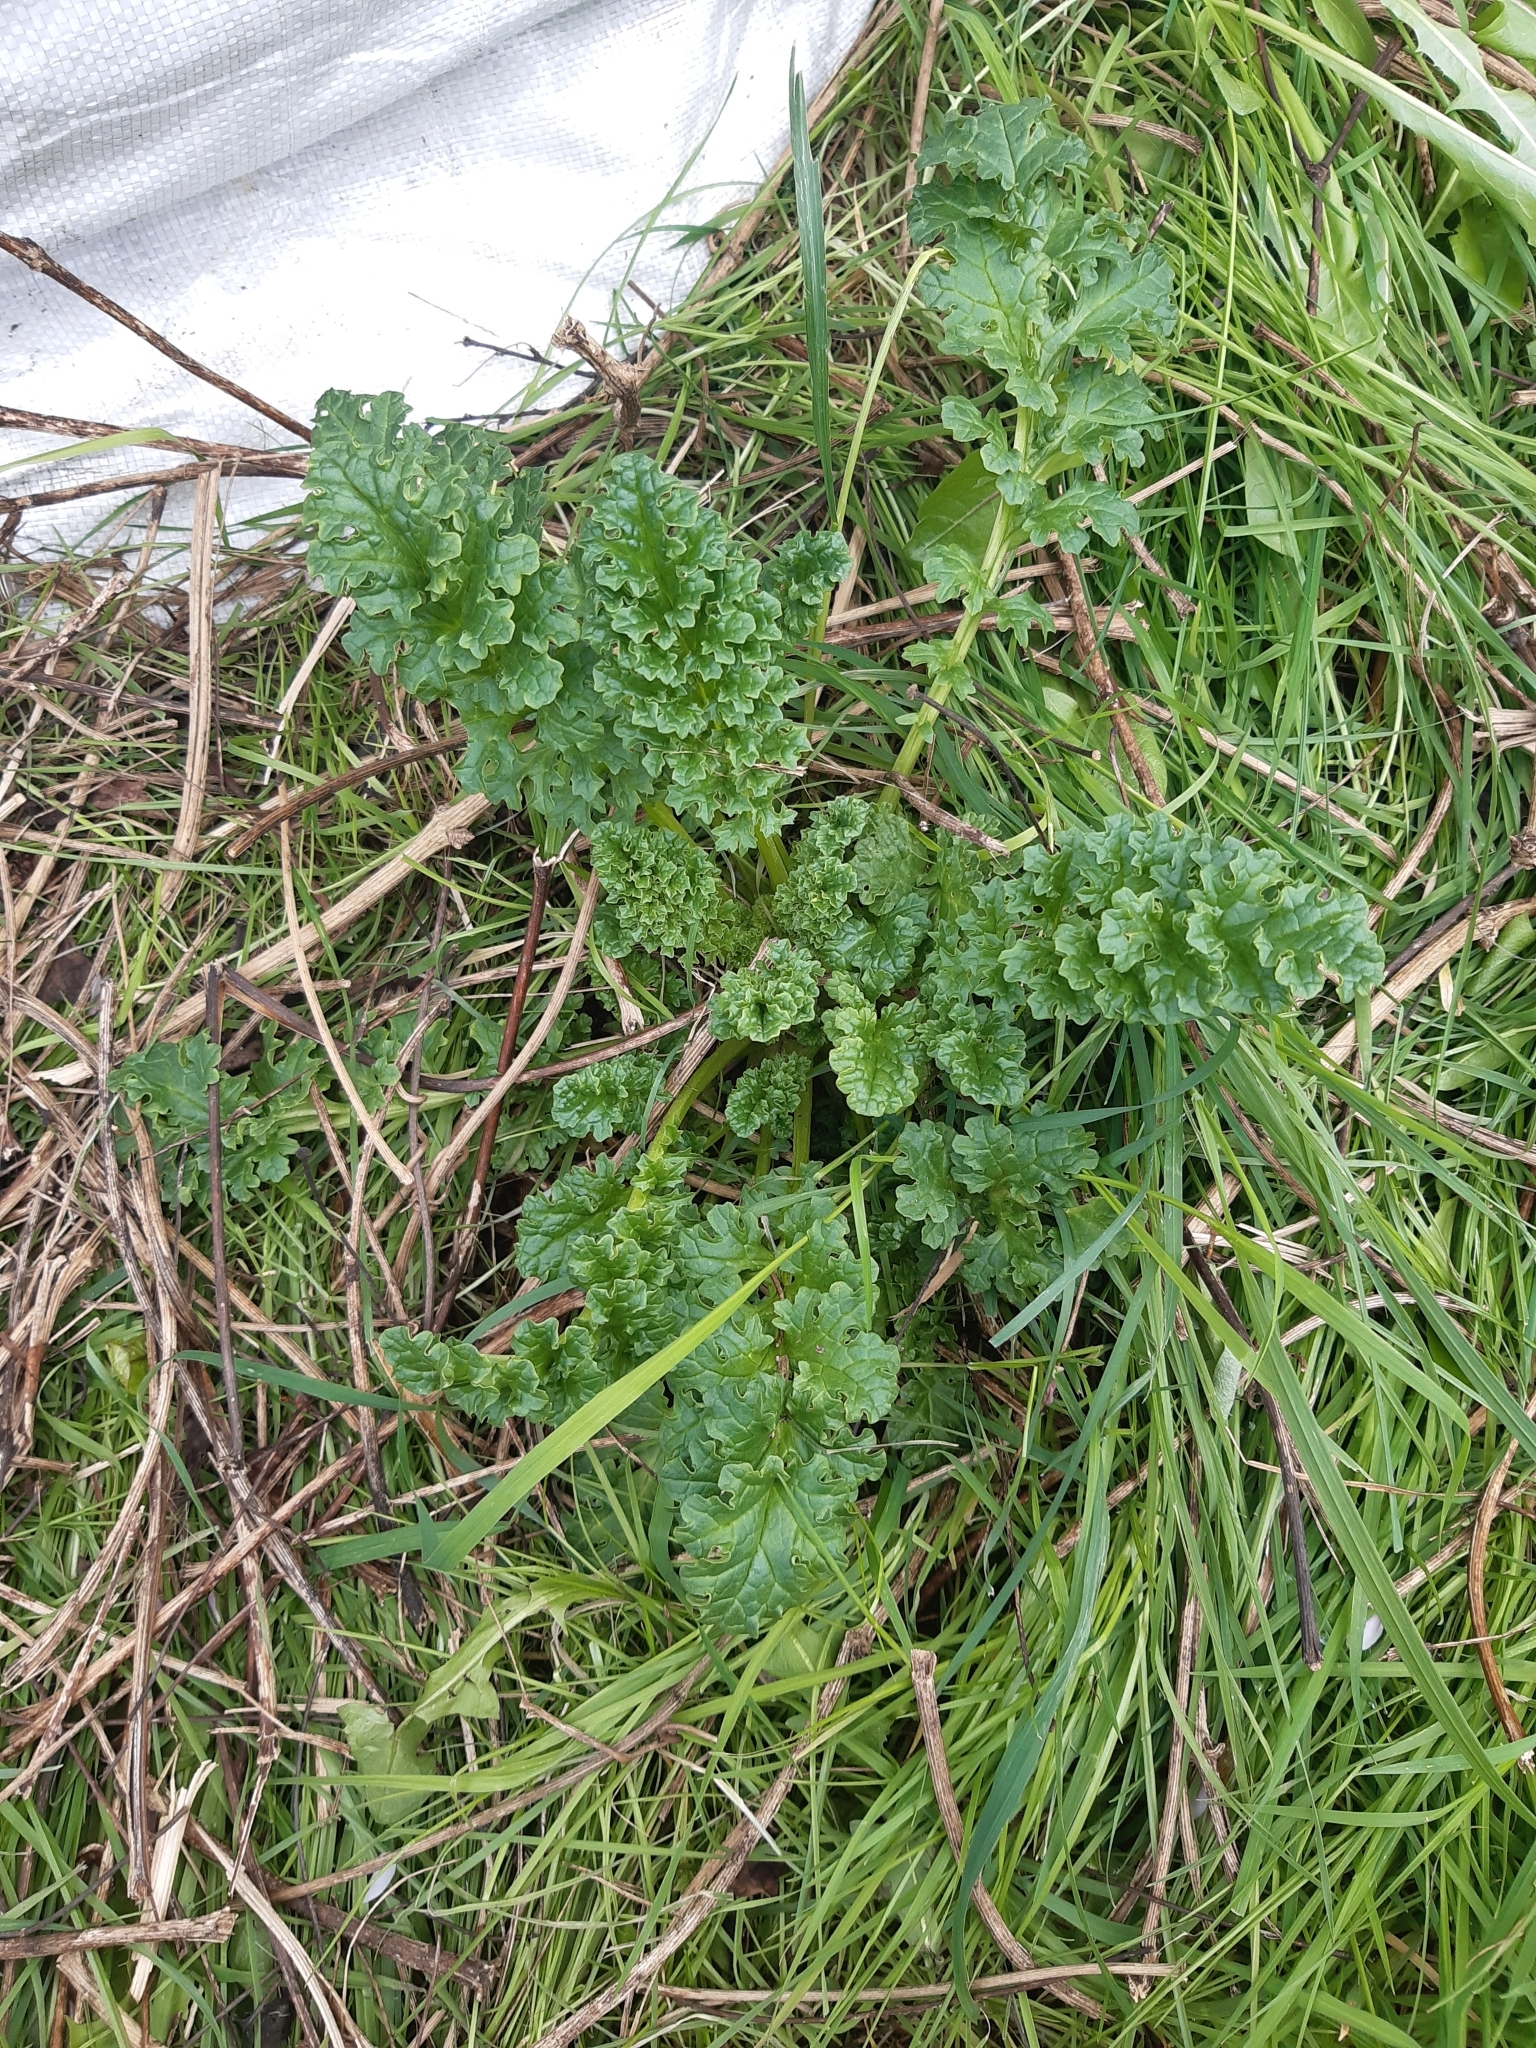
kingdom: Plantae
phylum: Tracheophyta
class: Magnoliopsida
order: Asterales
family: Asteraceae
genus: Jacobaea
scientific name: Jacobaea vulgaris
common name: Stinking willie
